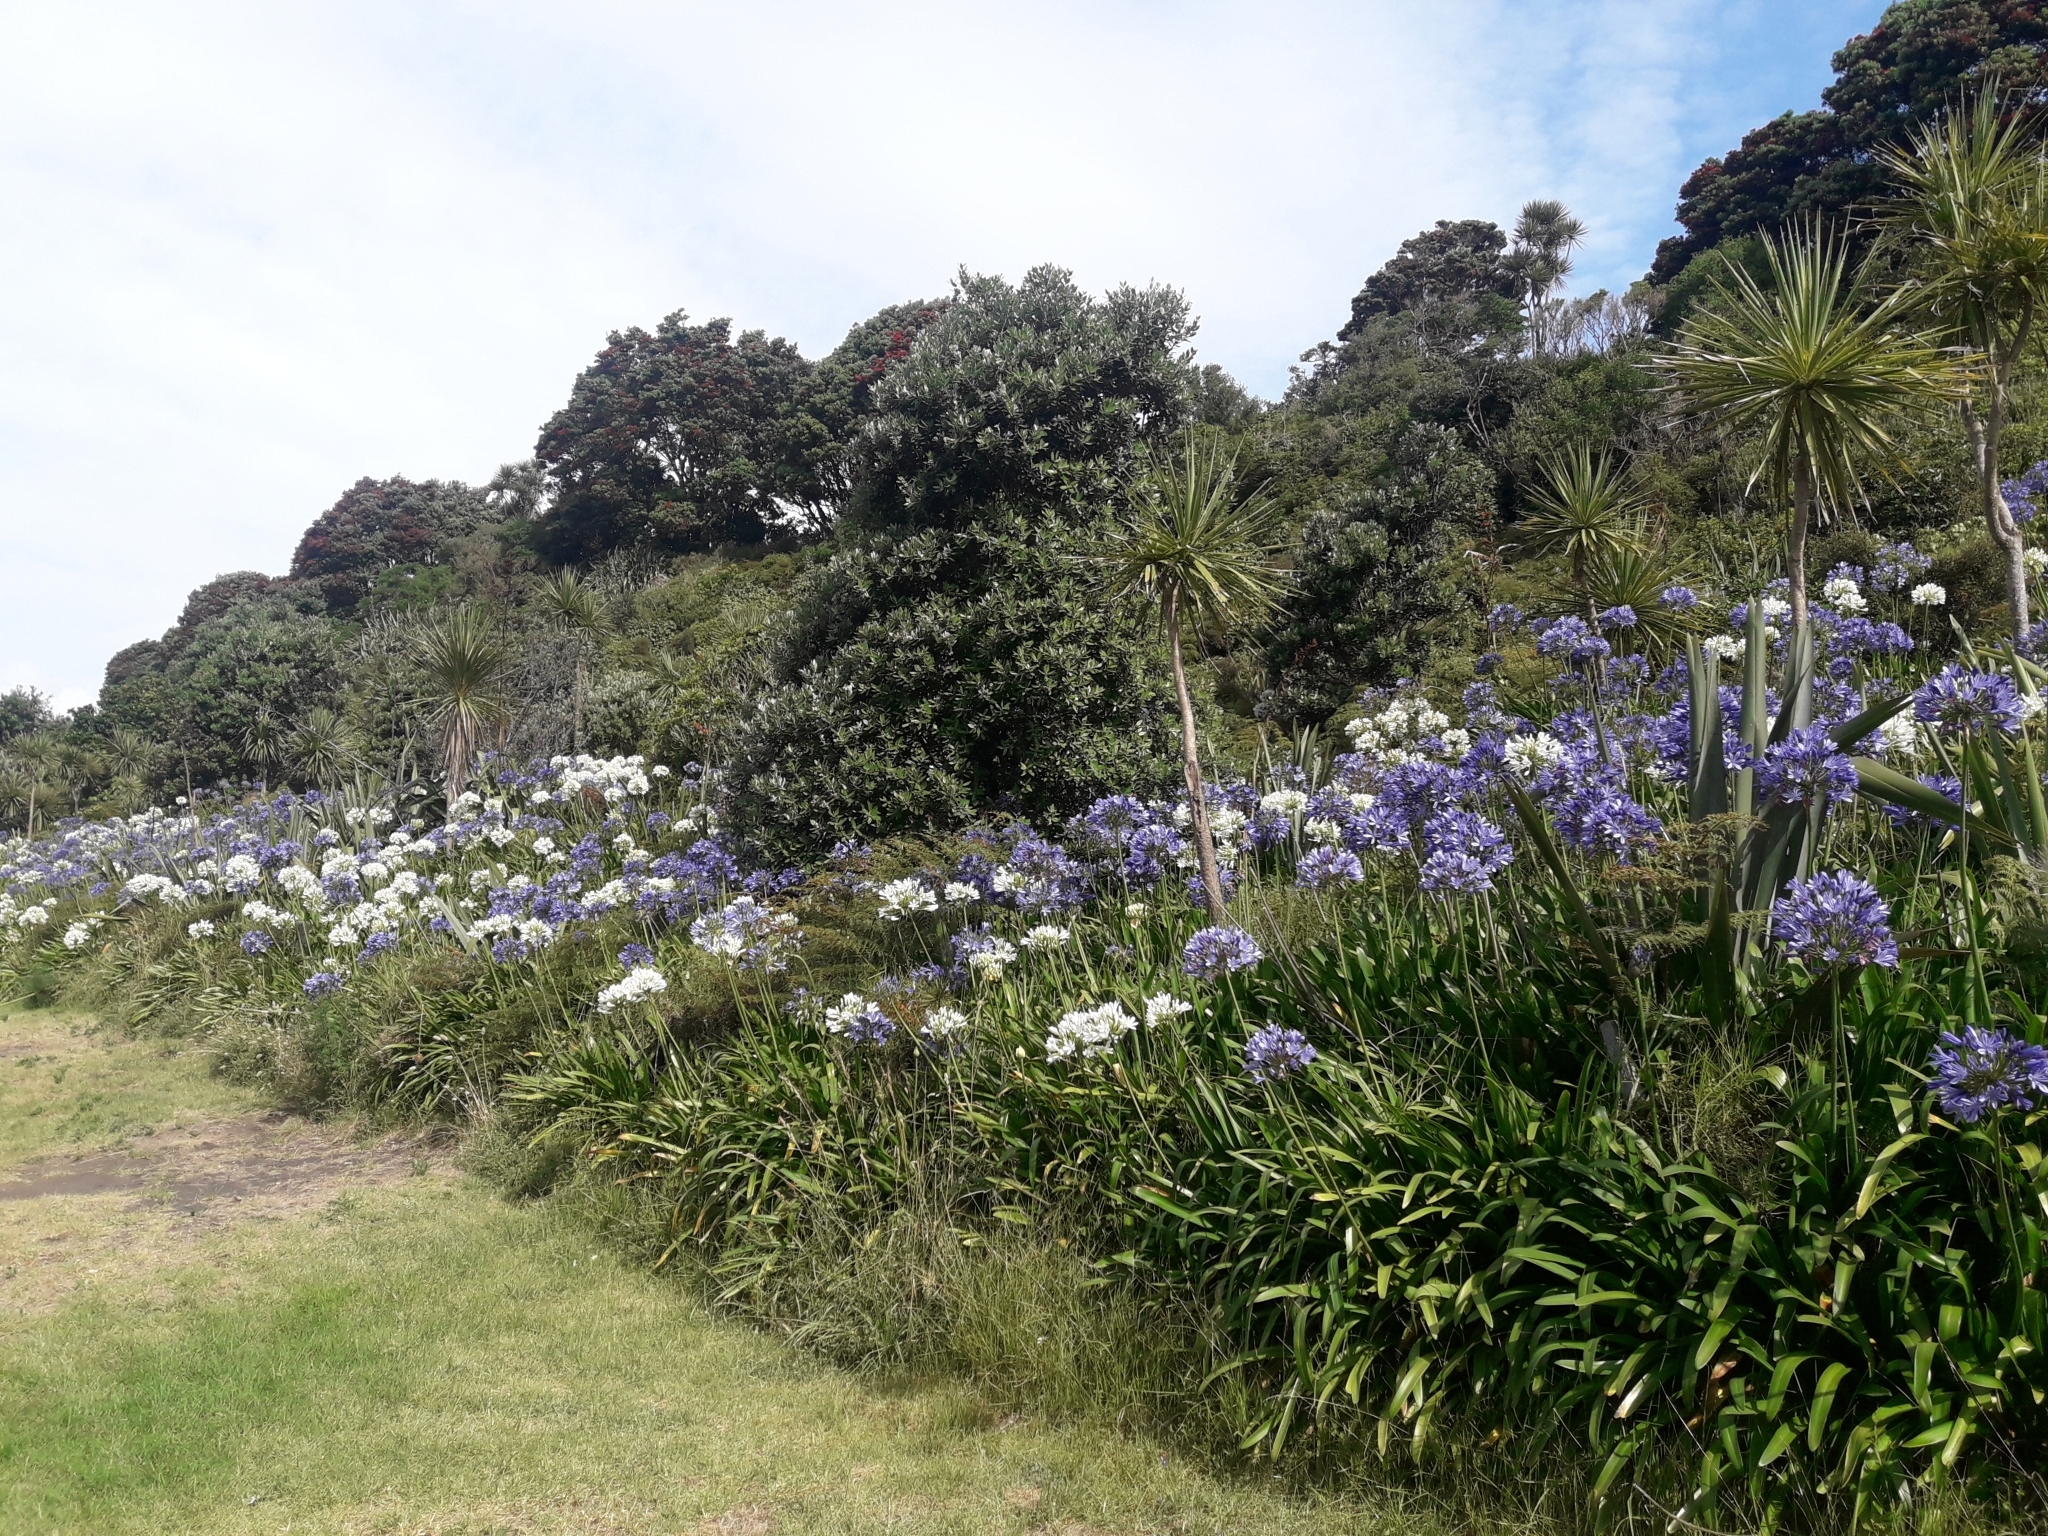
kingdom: Plantae
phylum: Tracheophyta
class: Liliopsida
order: Asparagales
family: Amaryllidaceae
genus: Agapanthus
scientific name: Agapanthus praecox
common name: African-lily
